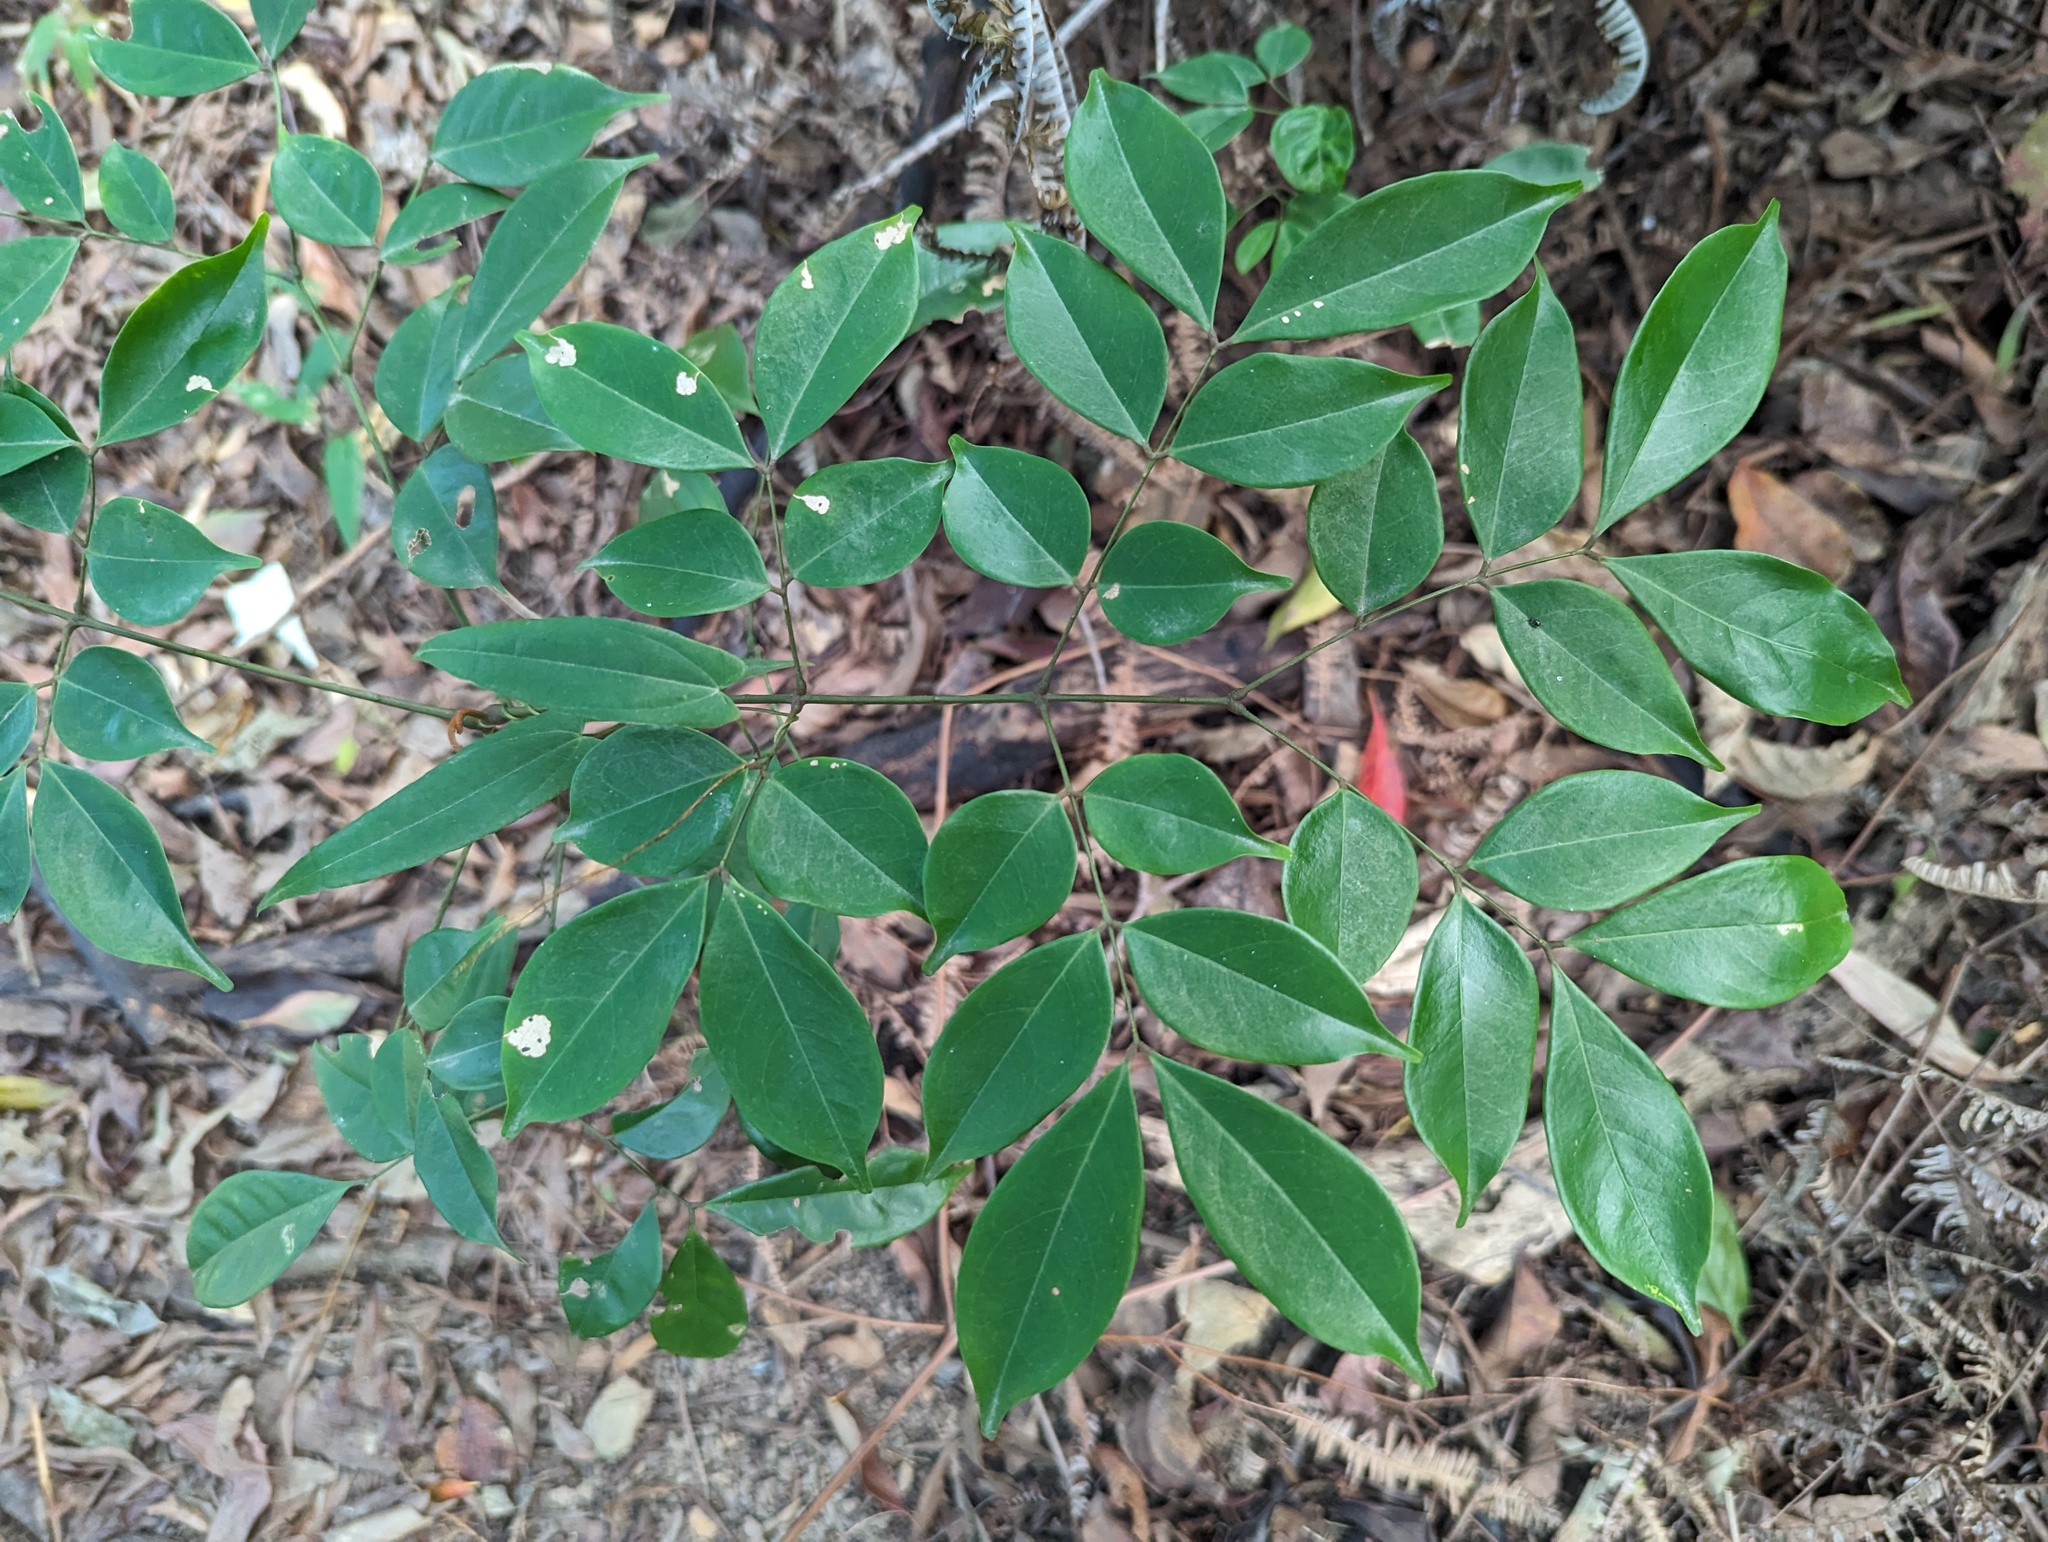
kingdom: Plantae
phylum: Tracheophyta
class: Magnoliopsida
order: Fabales
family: Fabaceae
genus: Archidendron
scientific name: Archidendron lucidum
